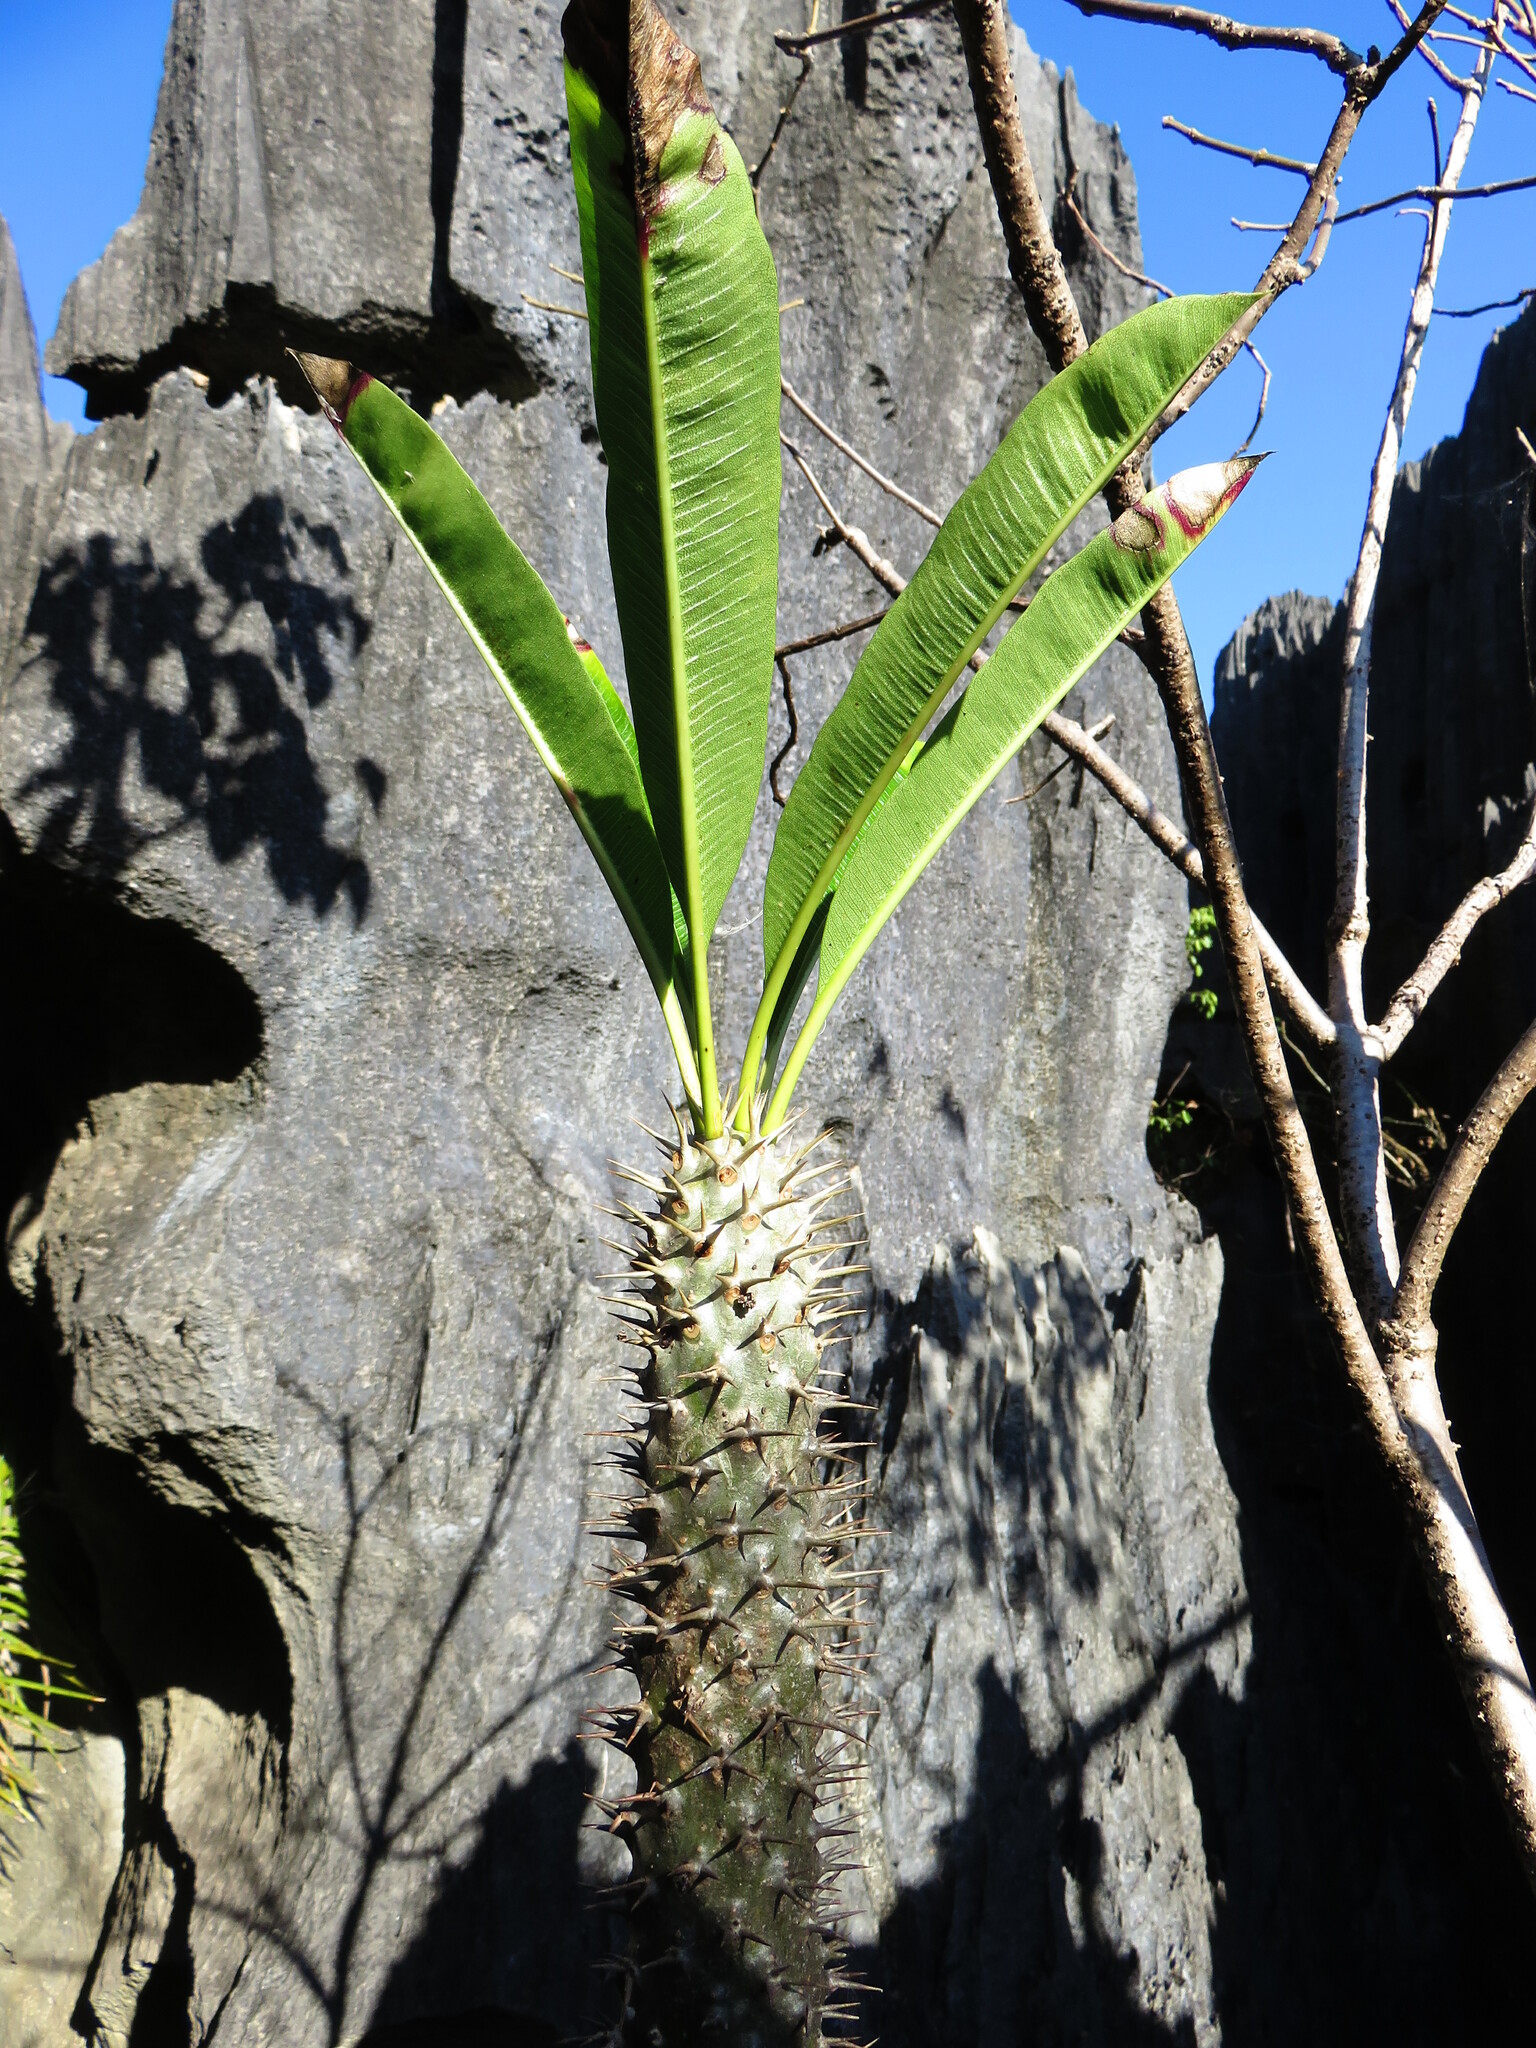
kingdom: Plantae
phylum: Tracheophyta
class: Magnoliopsida
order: Gentianales
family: Apocynaceae
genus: Pachypodium
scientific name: Pachypodium lamerei
